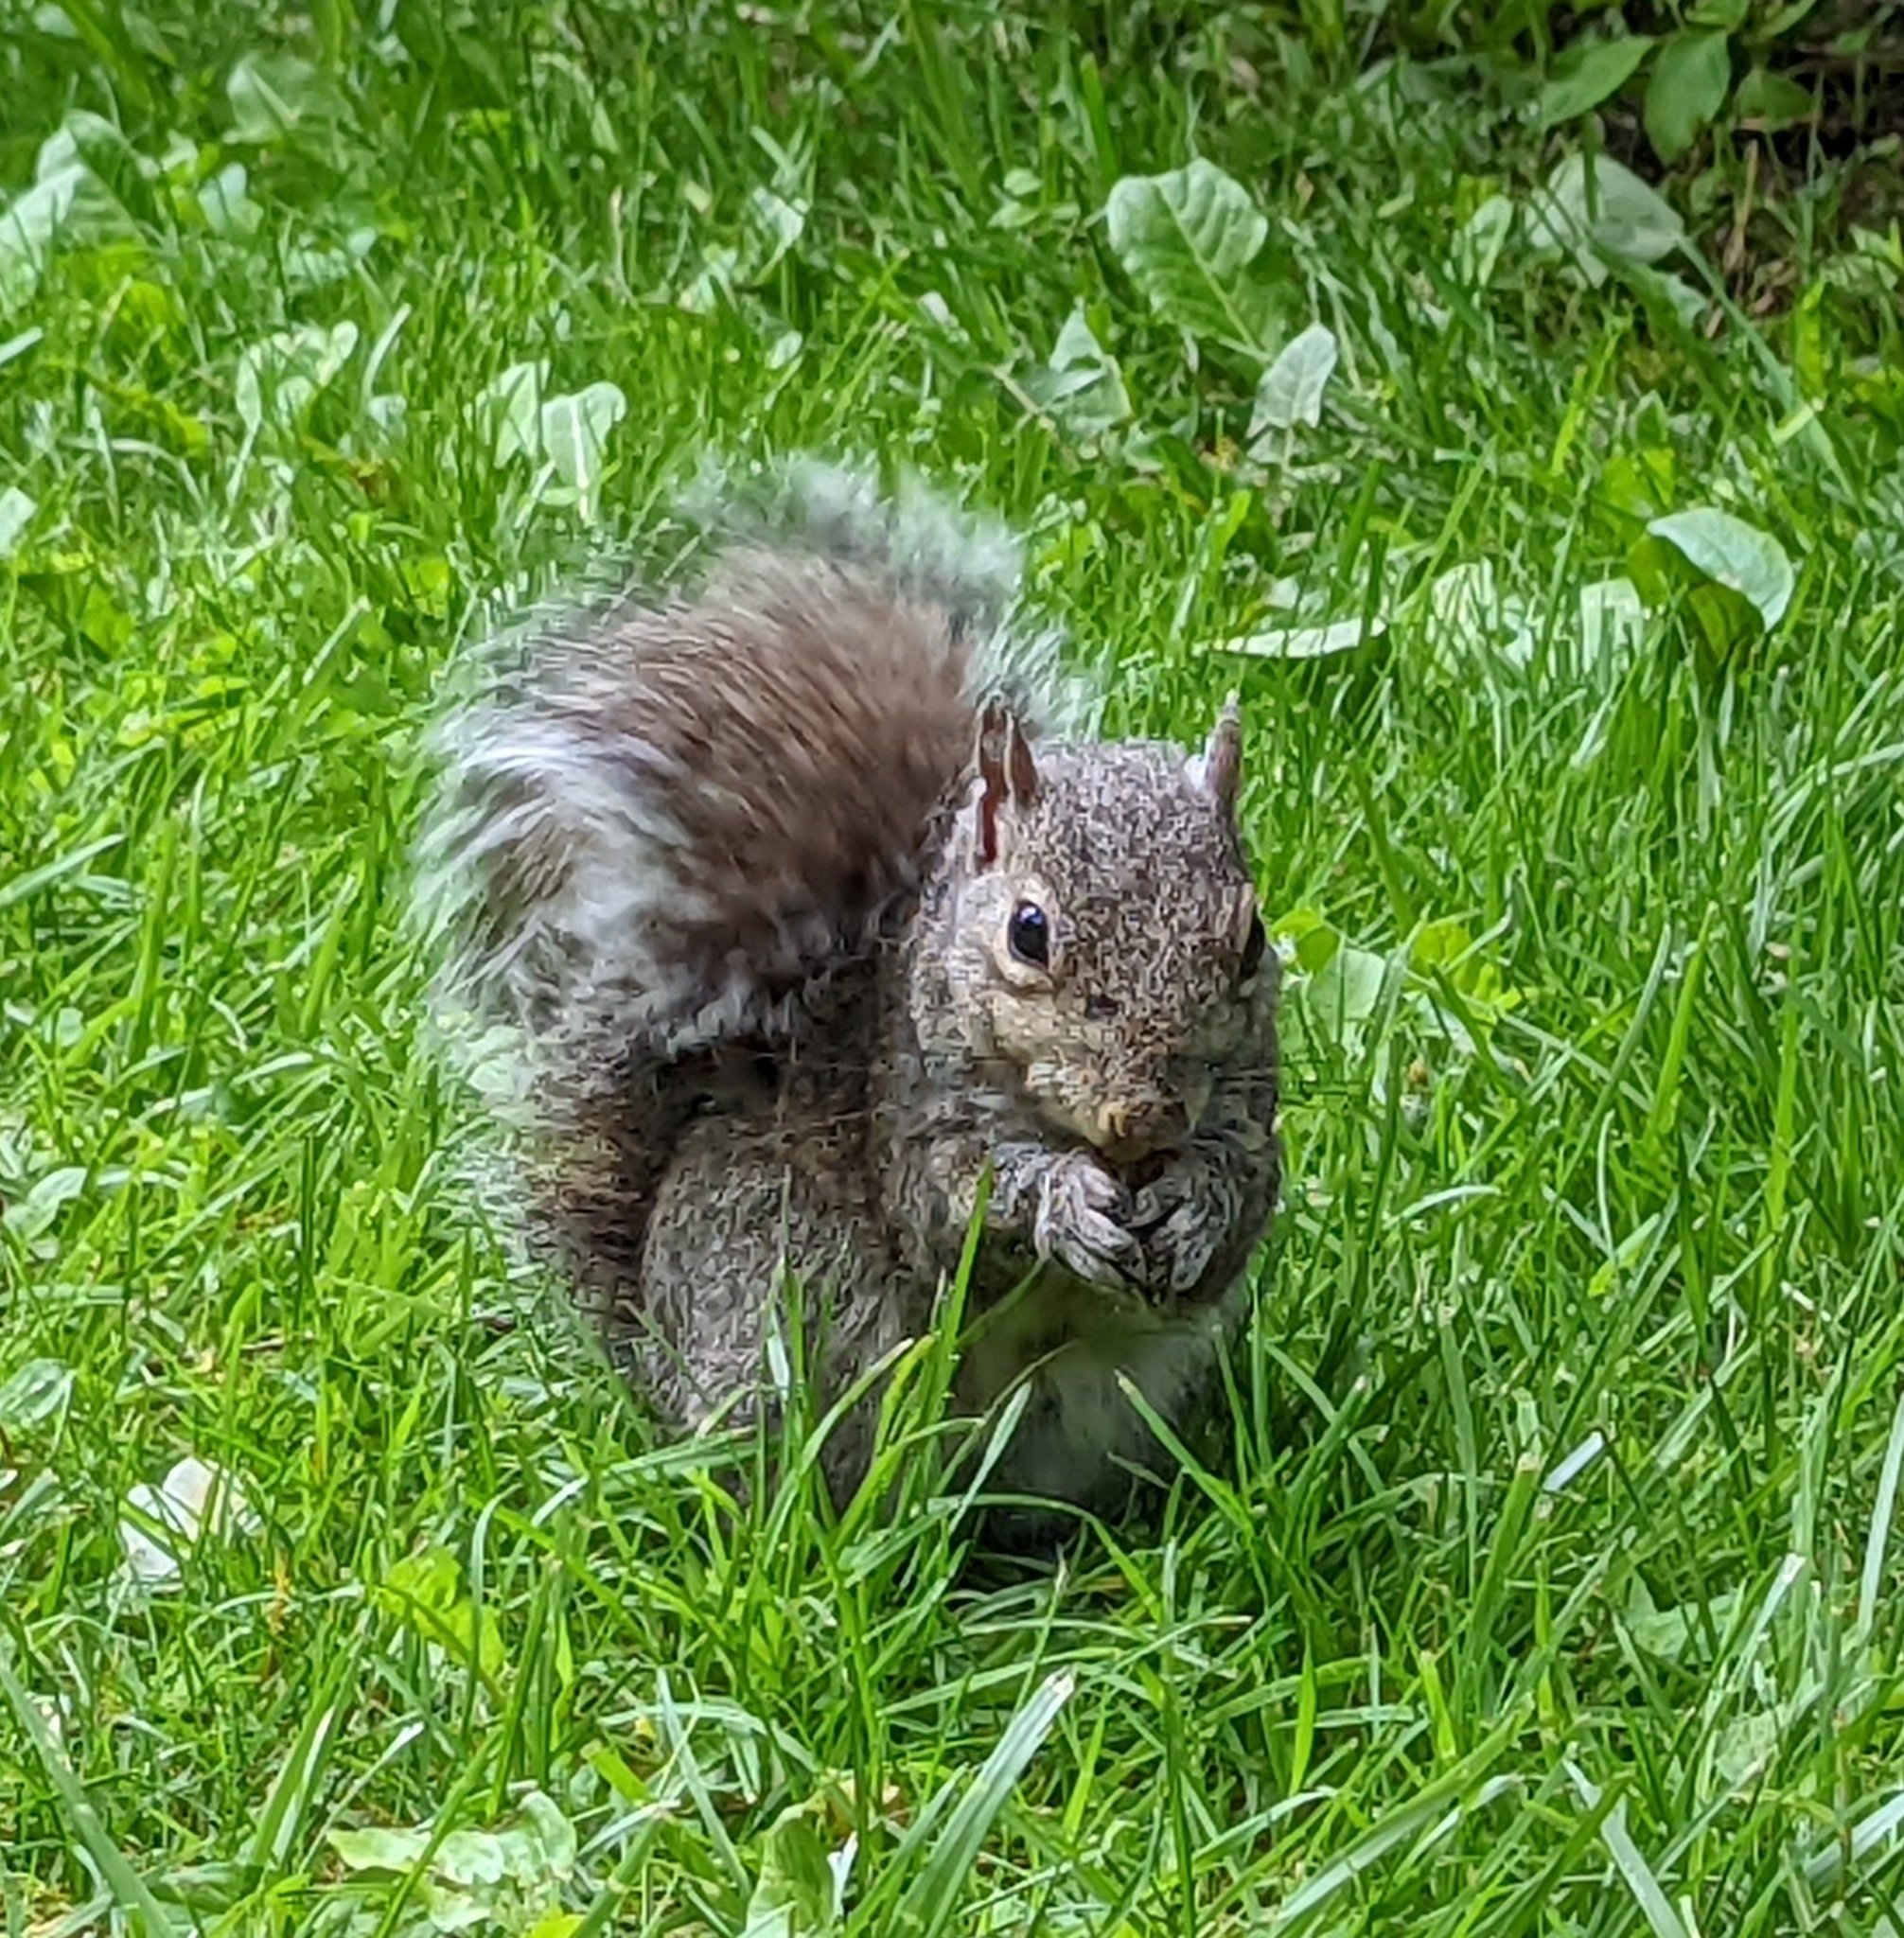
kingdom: Animalia
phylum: Chordata
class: Mammalia
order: Rodentia
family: Sciuridae
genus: Sciurus
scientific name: Sciurus carolinensis
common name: Eastern gray squirrel
